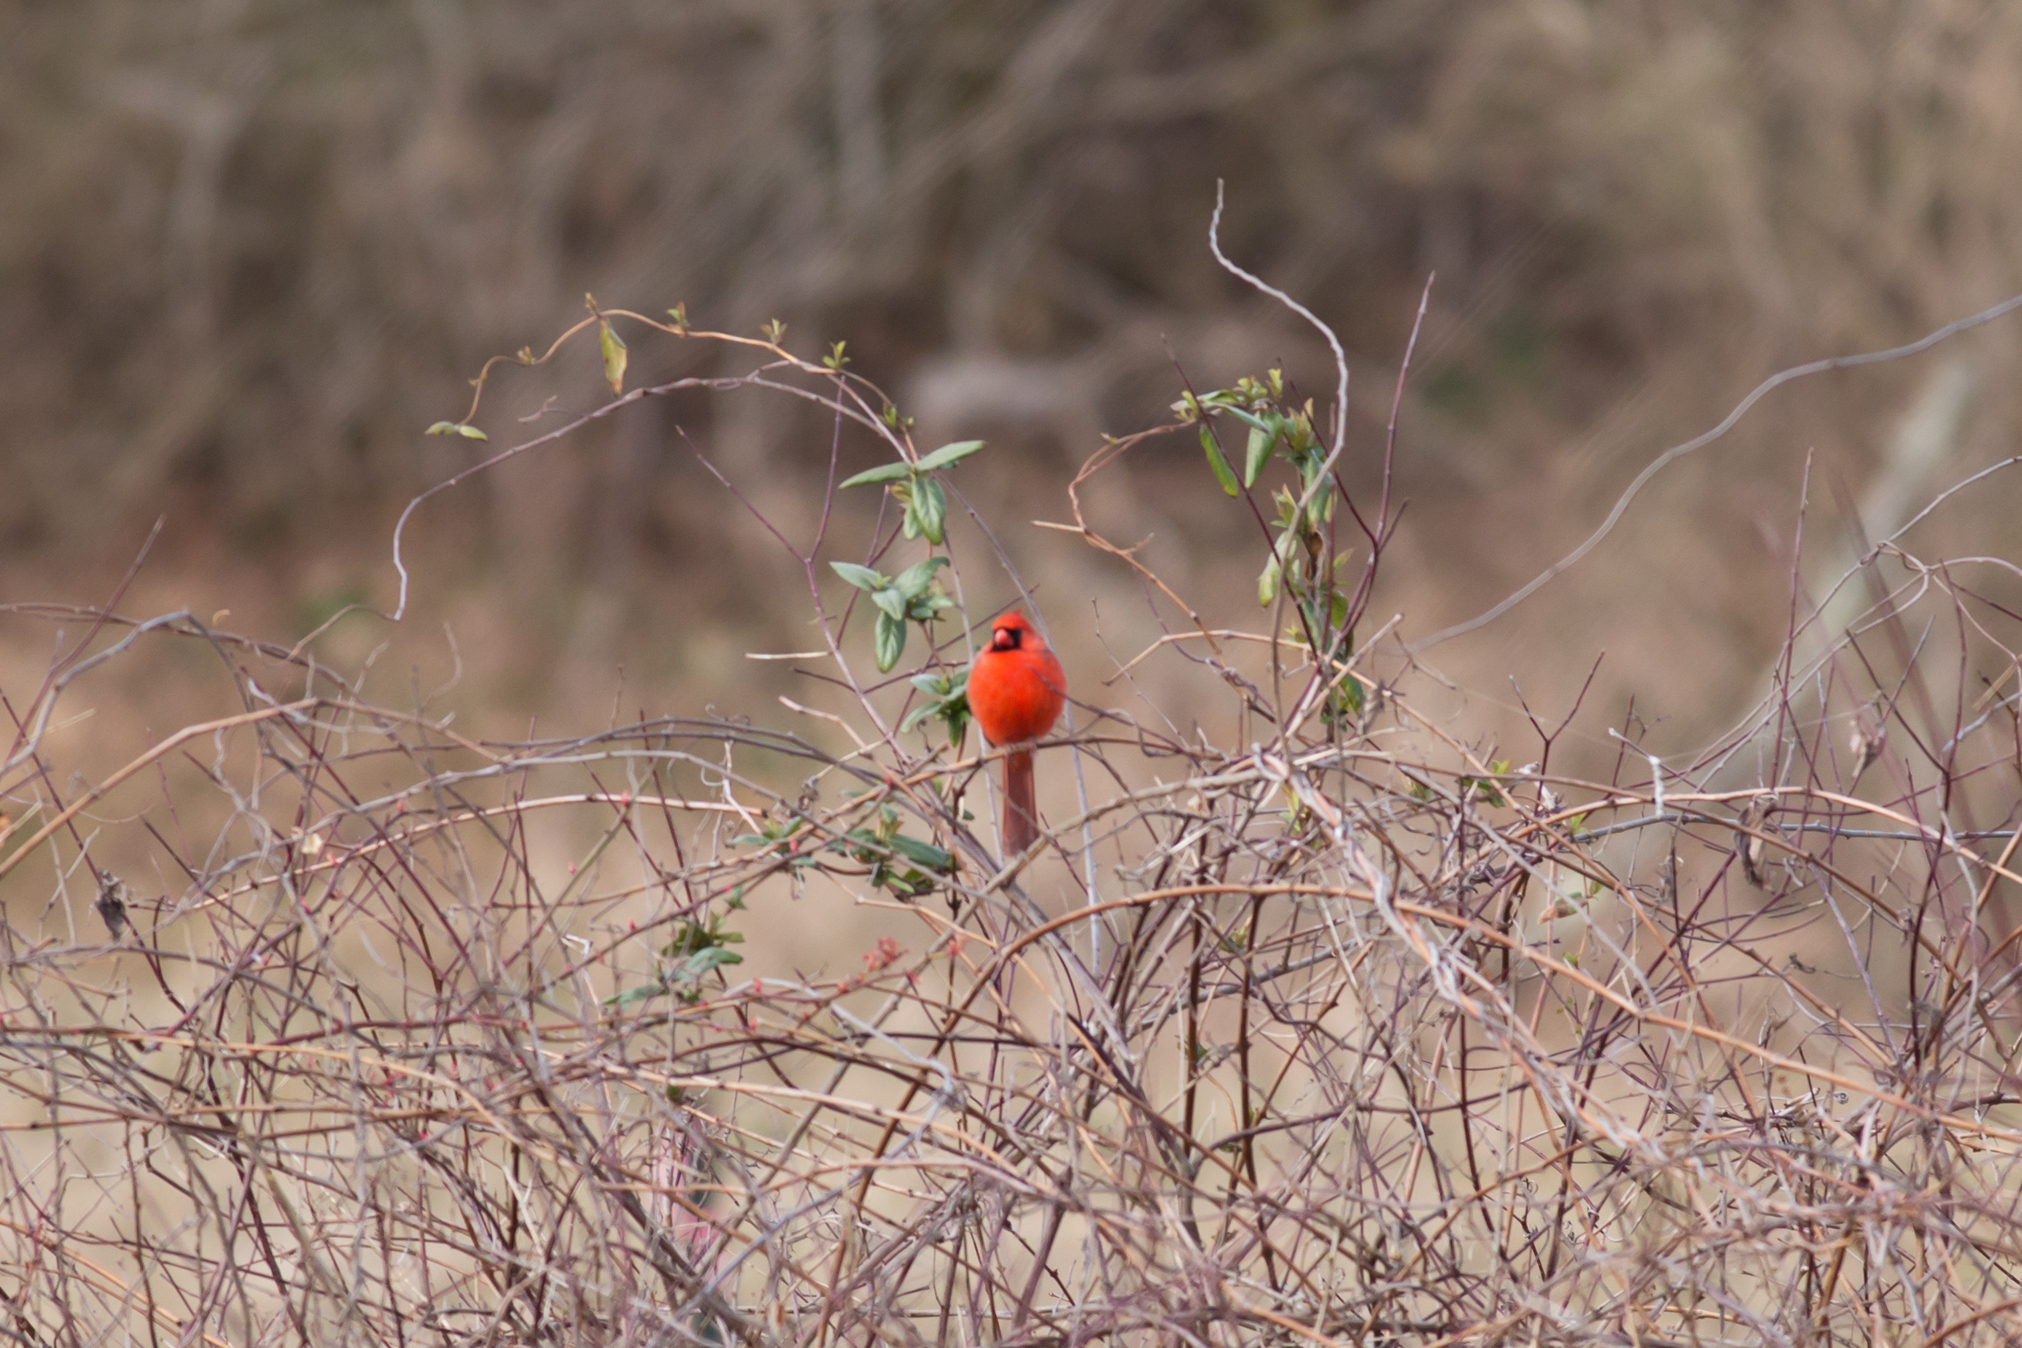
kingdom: Animalia
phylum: Chordata
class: Aves
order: Passeriformes
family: Cardinalidae
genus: Cardinalis
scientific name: Cardinalis cardinalis
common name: Northern cardinal
